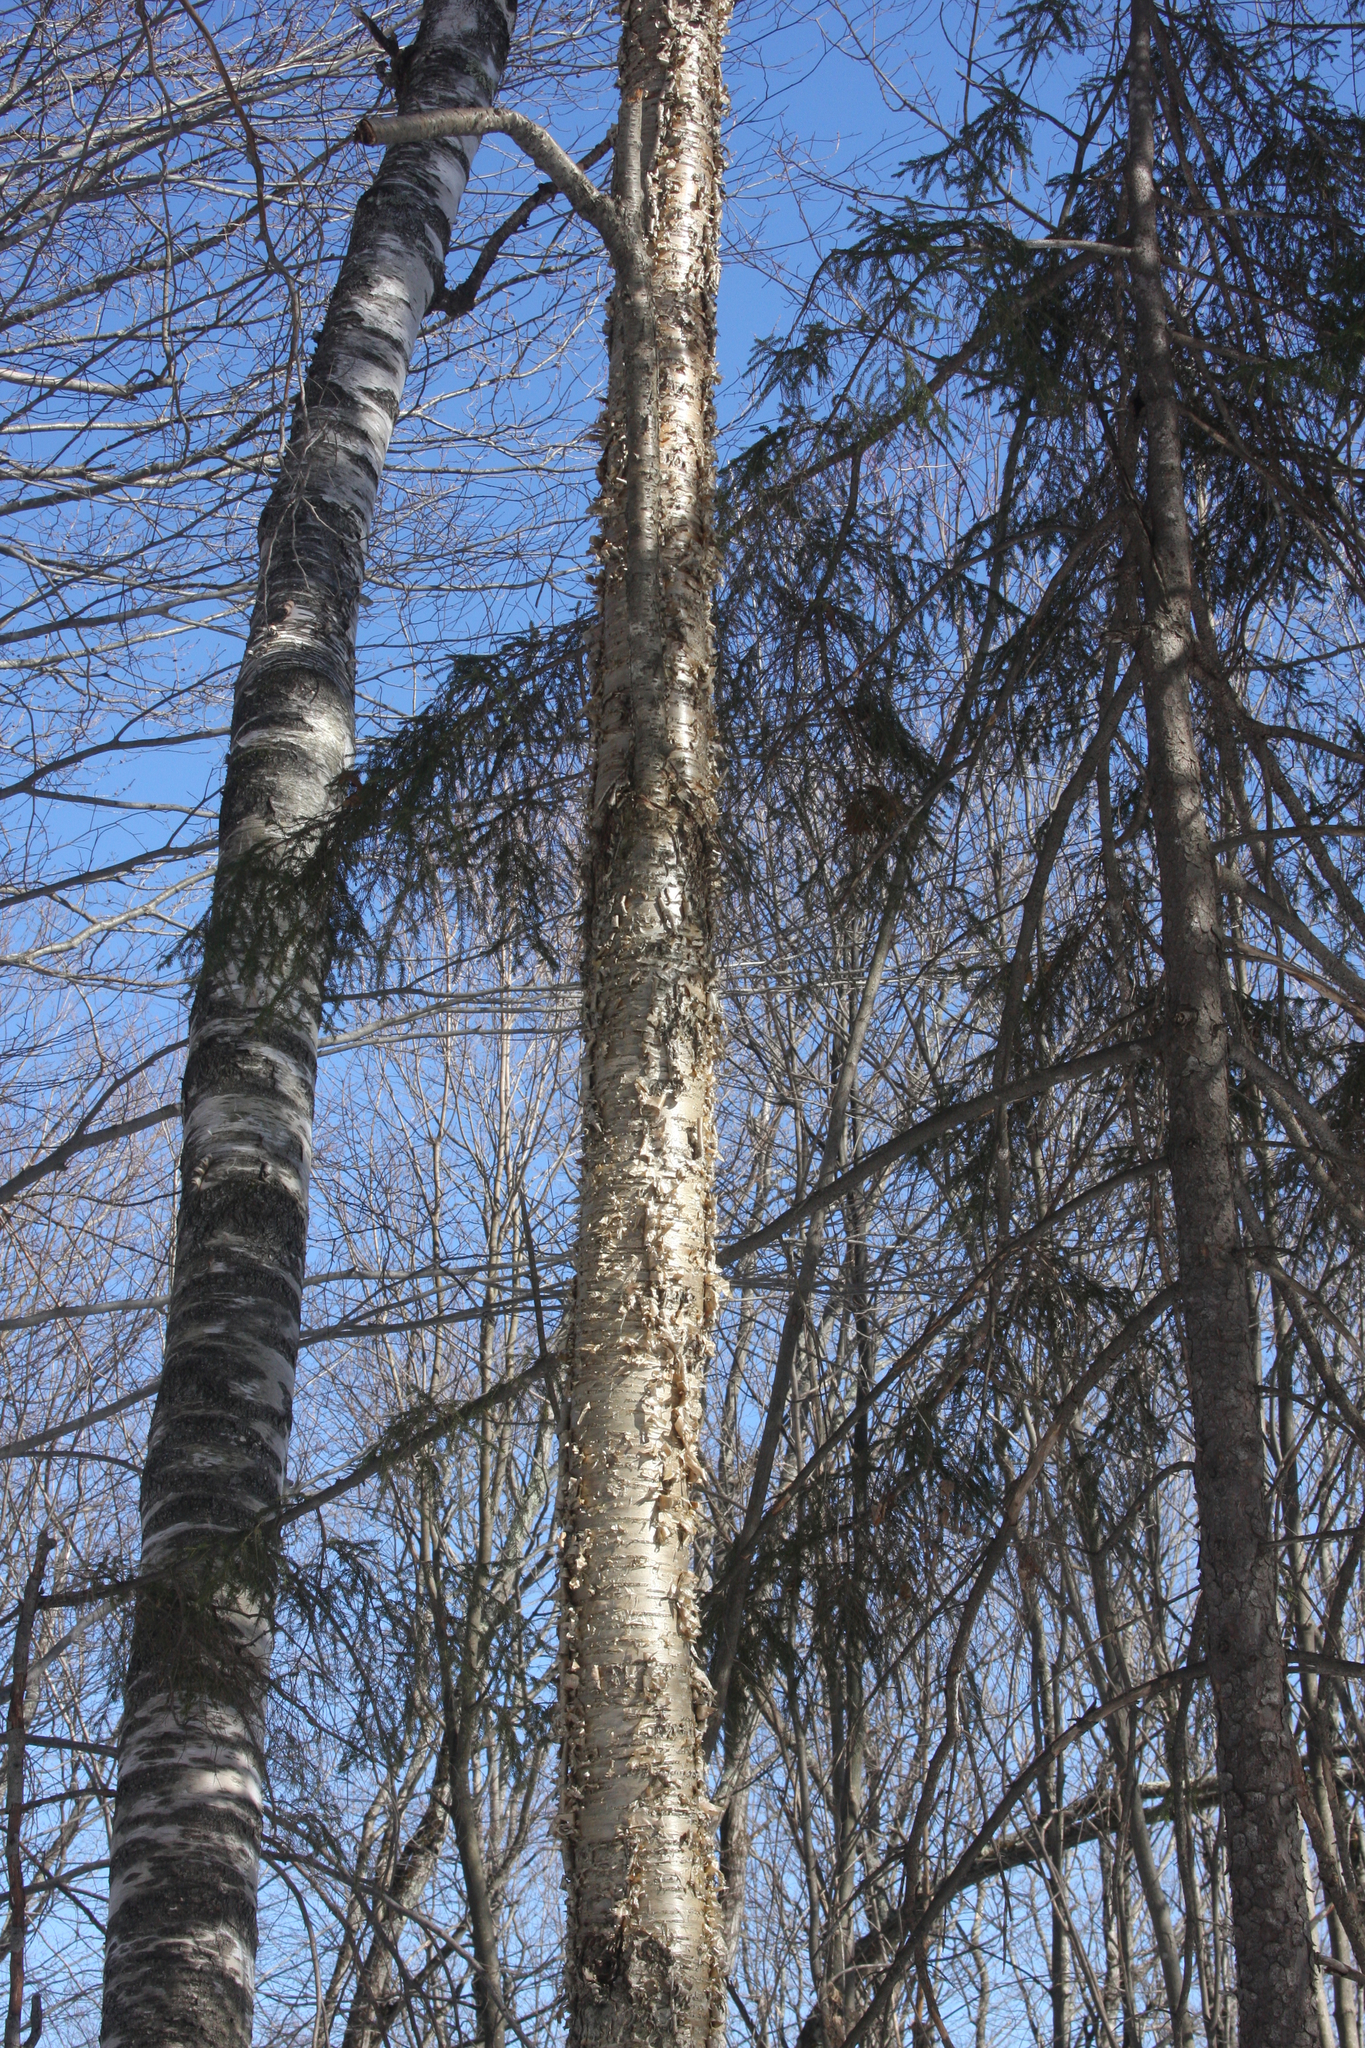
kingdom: Plantae
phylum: Tracheophyta
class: Magnoliopsida
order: Fagales
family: Betulaceae
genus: Betula
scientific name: Betula alleghaniensis
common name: Yellow birch
